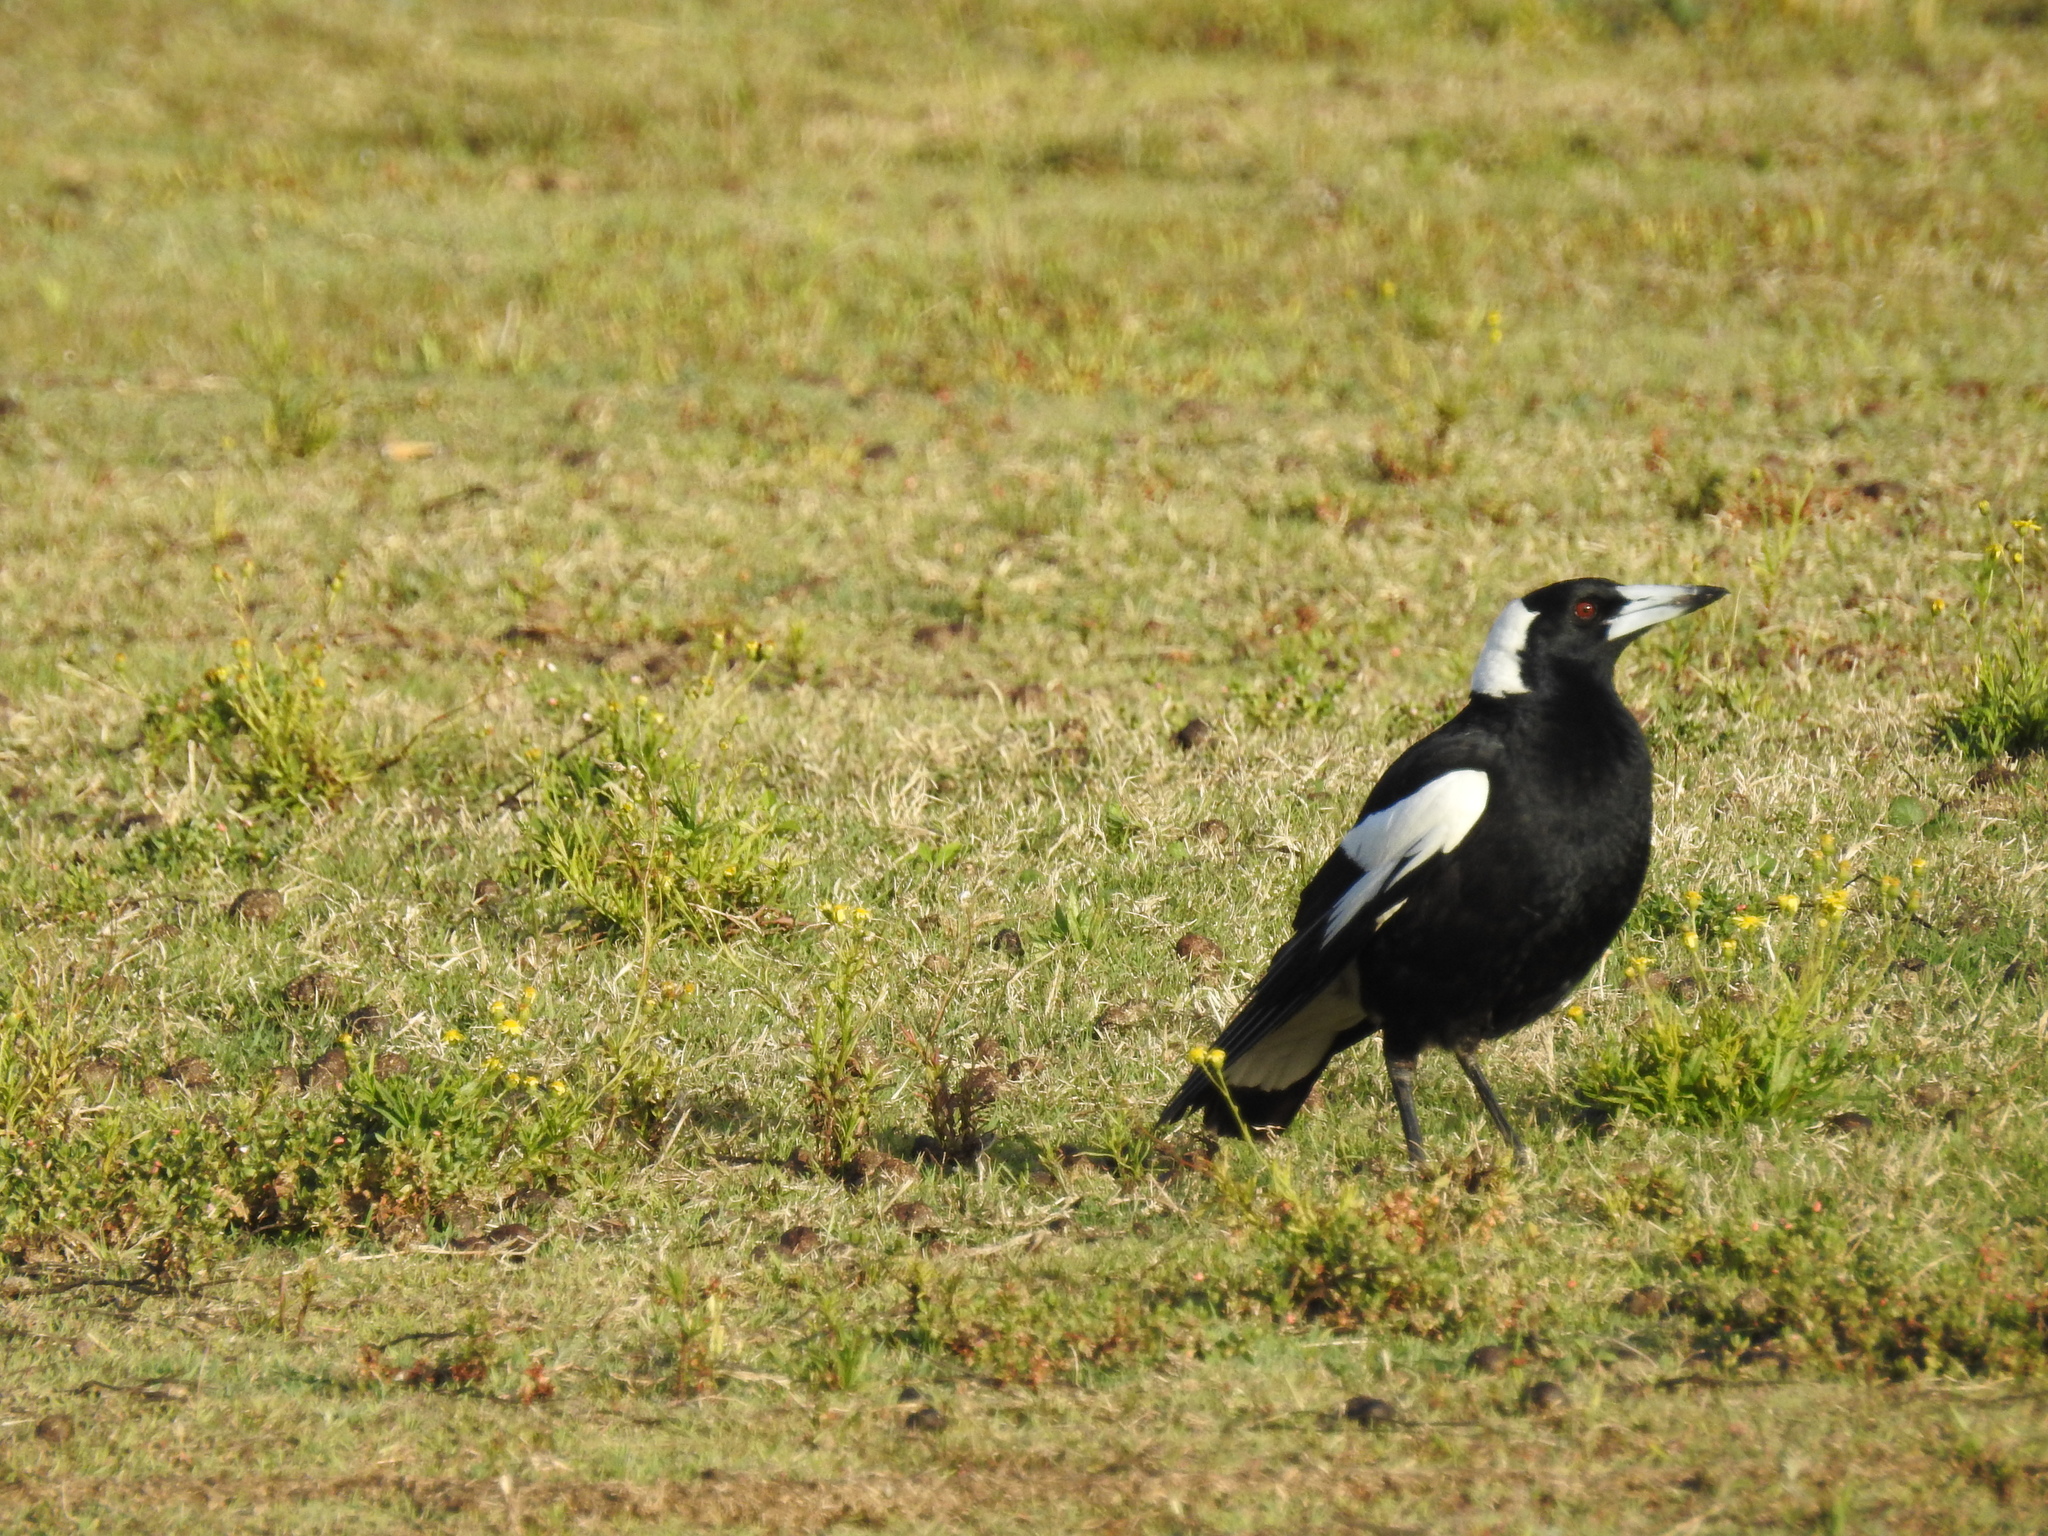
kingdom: Animalia
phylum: Chordata
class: Aves
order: Passeriformes
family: Cracticidae
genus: Gymnorhina
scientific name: Gymnorhina tibicen
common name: Australian magpie
